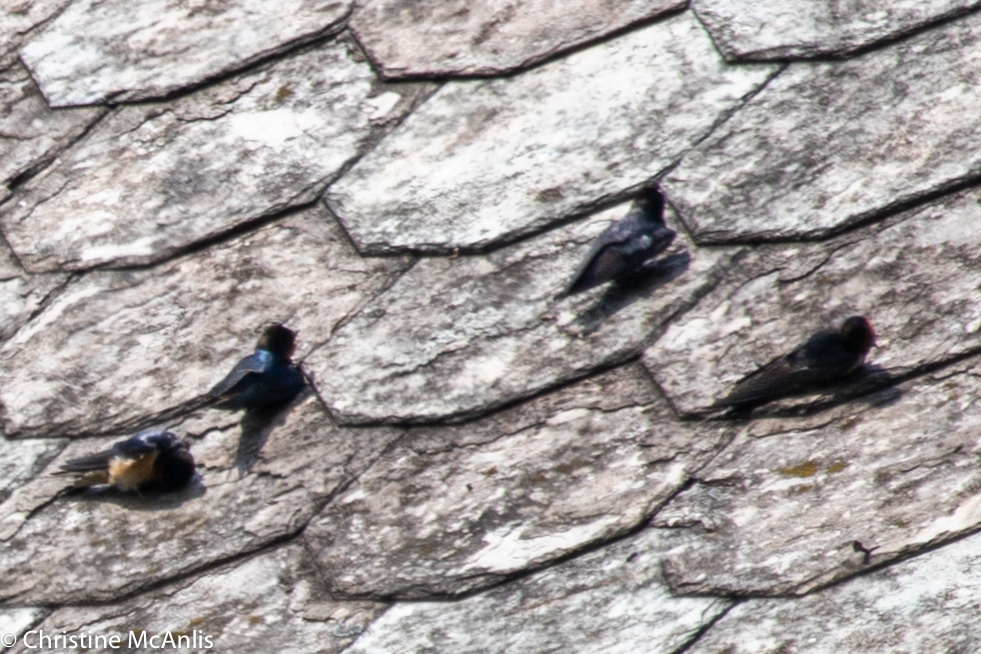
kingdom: Animalia
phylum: Chordata
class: Aves
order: Passeriformes
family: Hirundinidae
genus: Hirundo
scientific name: Hirundo rustica
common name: Barn swallow
